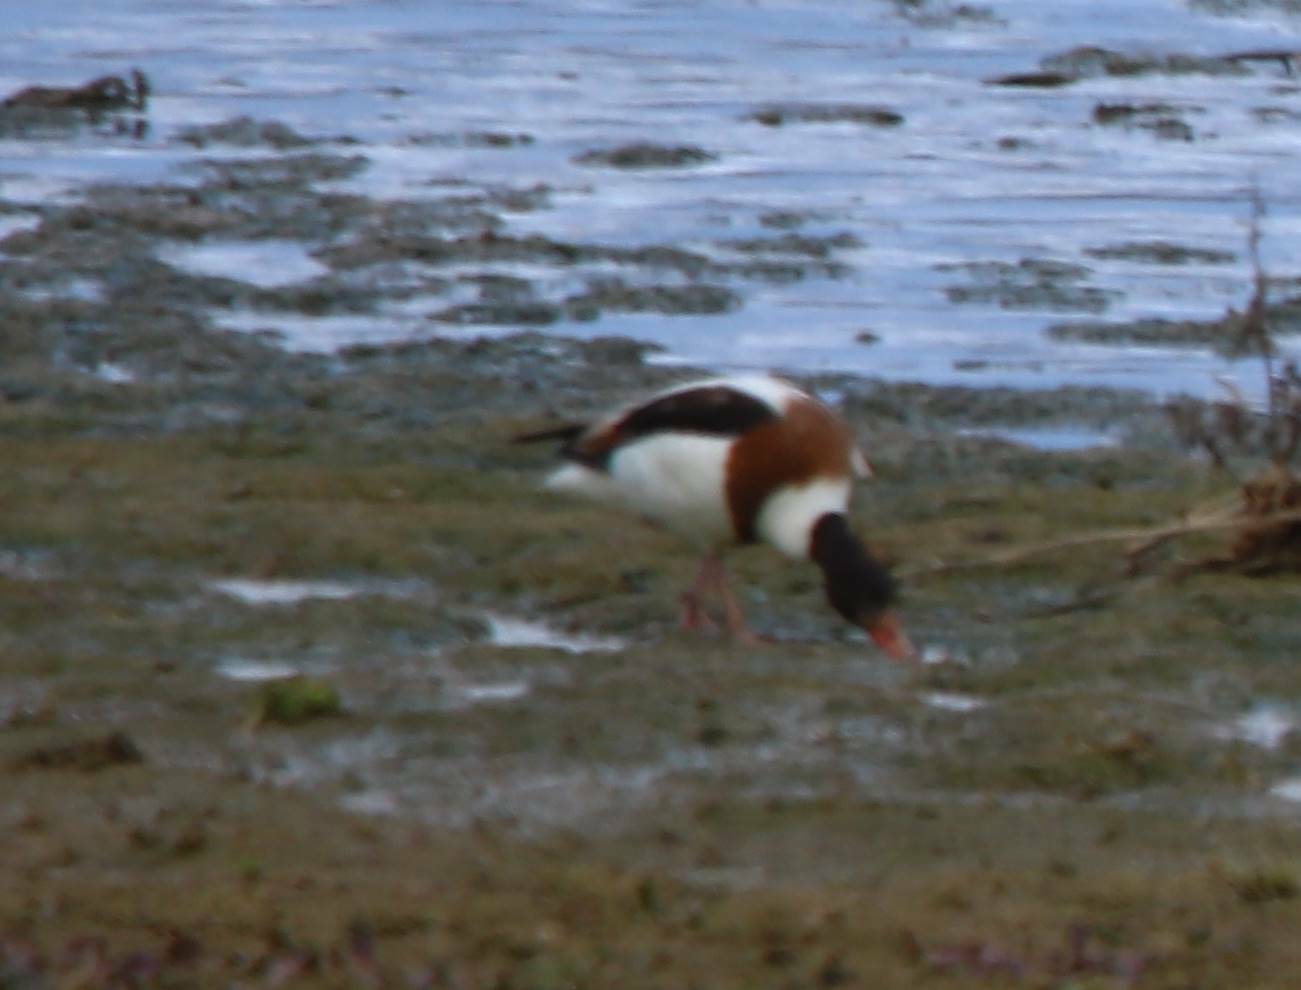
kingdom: Animalia
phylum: Chordata
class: Aves
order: Anseriformes
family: Anatidae
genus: Tadorna
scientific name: Tadorna tadorna
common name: Common shelduck
